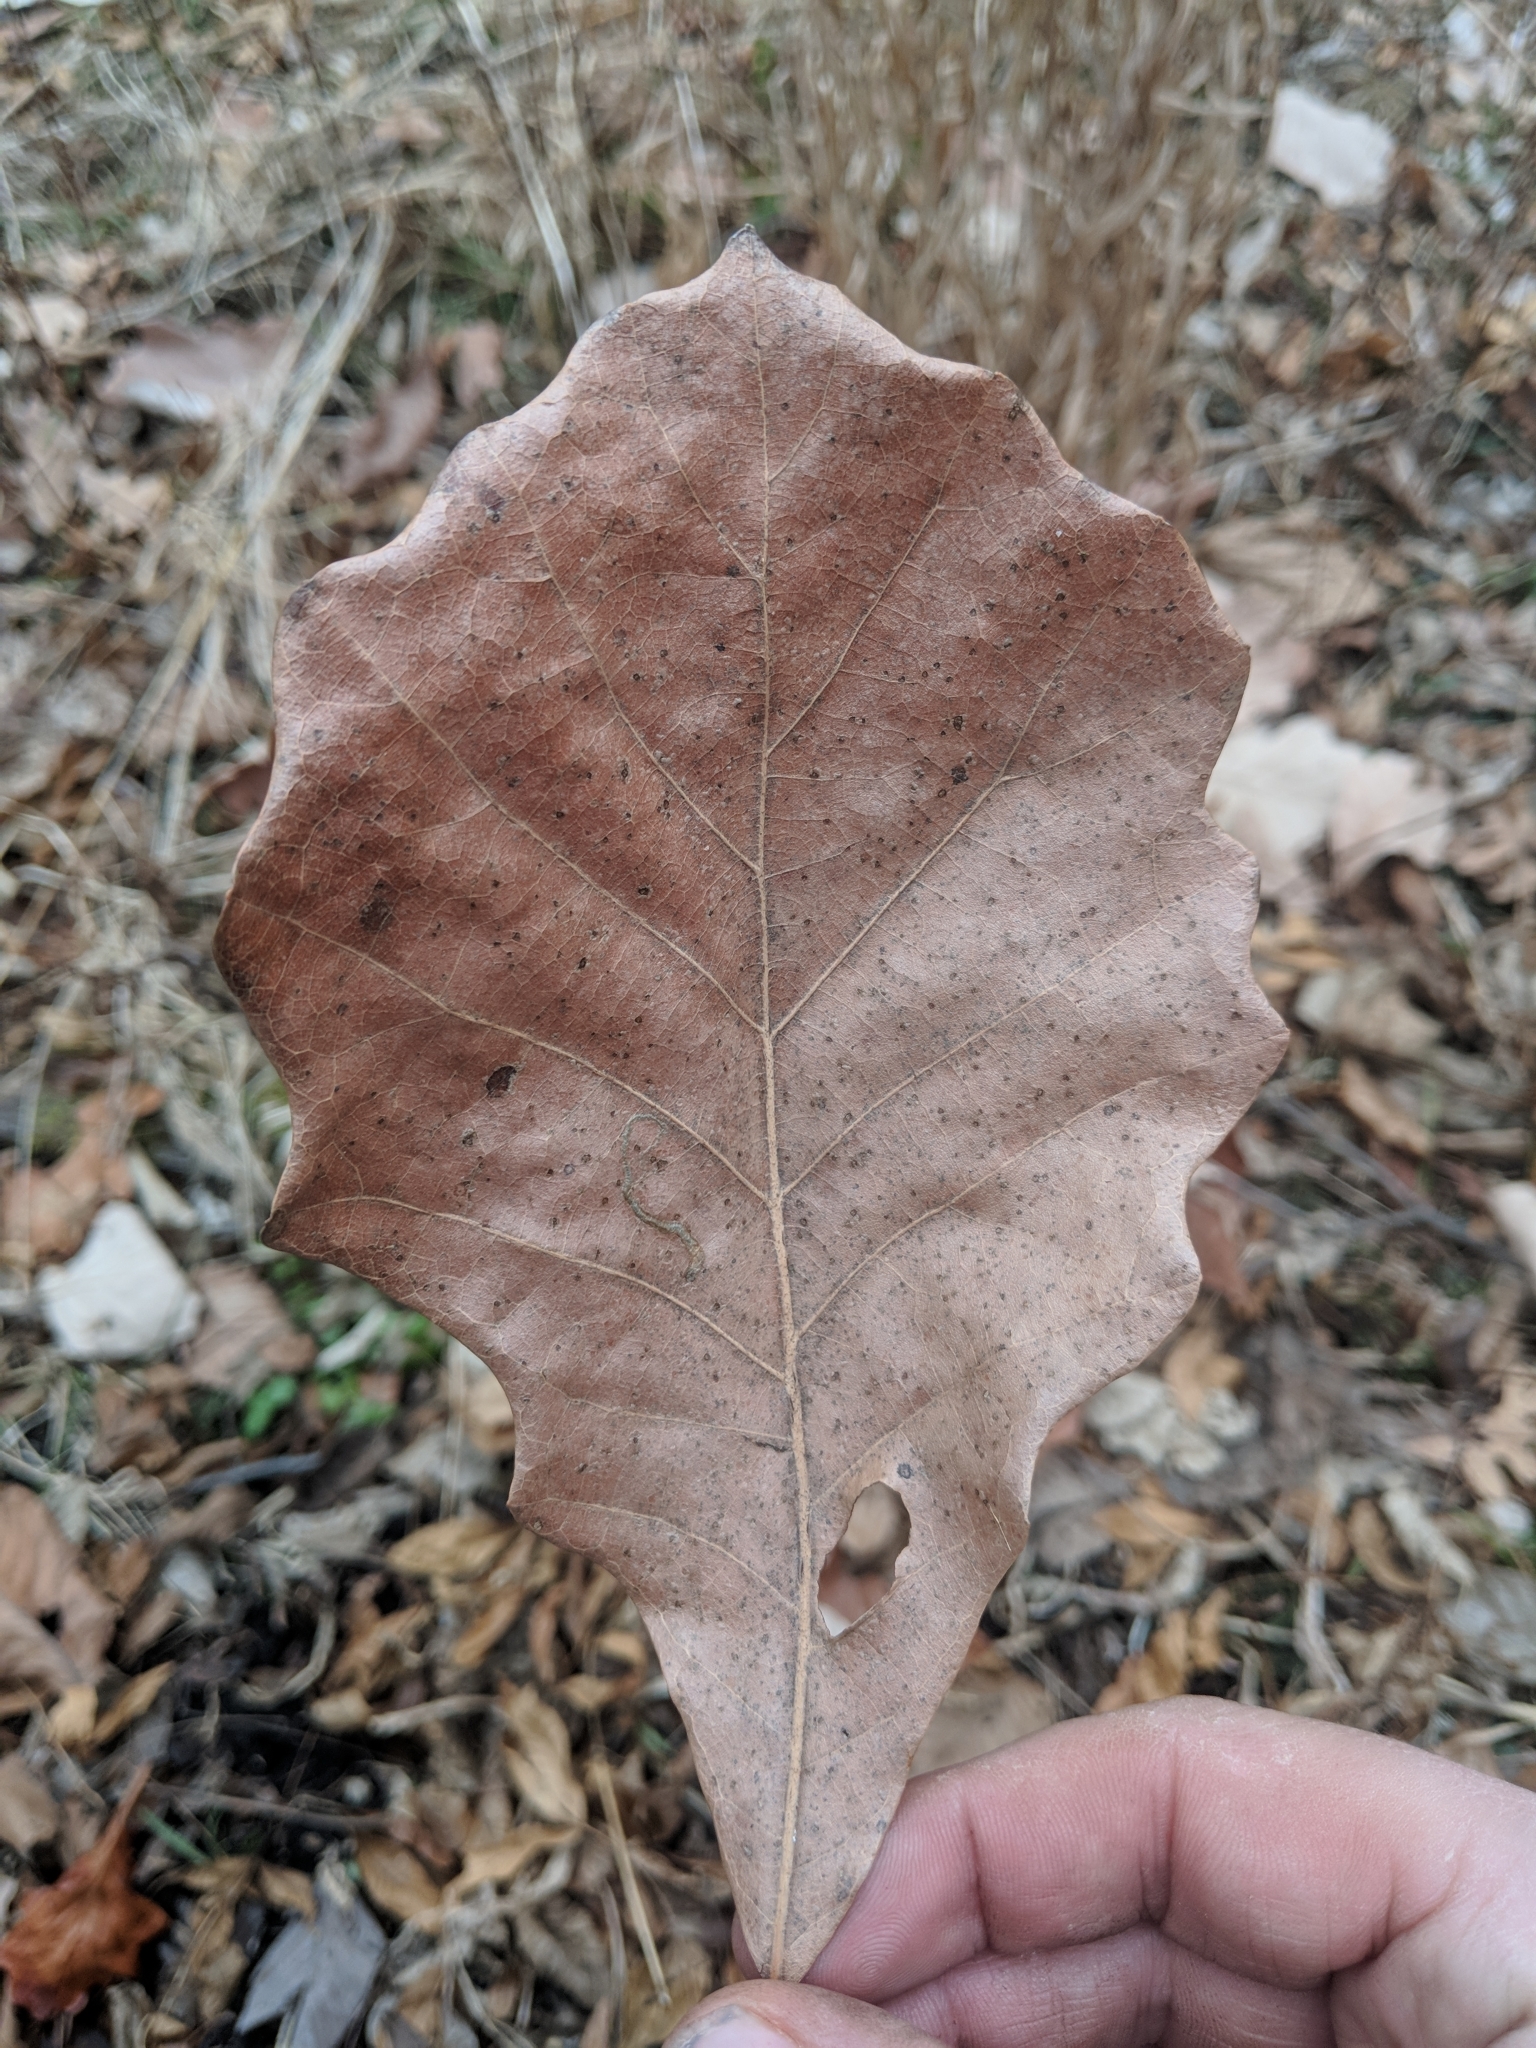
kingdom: Plantae
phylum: Tracheophyta
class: Magnoliopsida
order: Fagales
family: Fagaceae
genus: Quercus
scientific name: Quercus bicolor
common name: Swamp white oak
